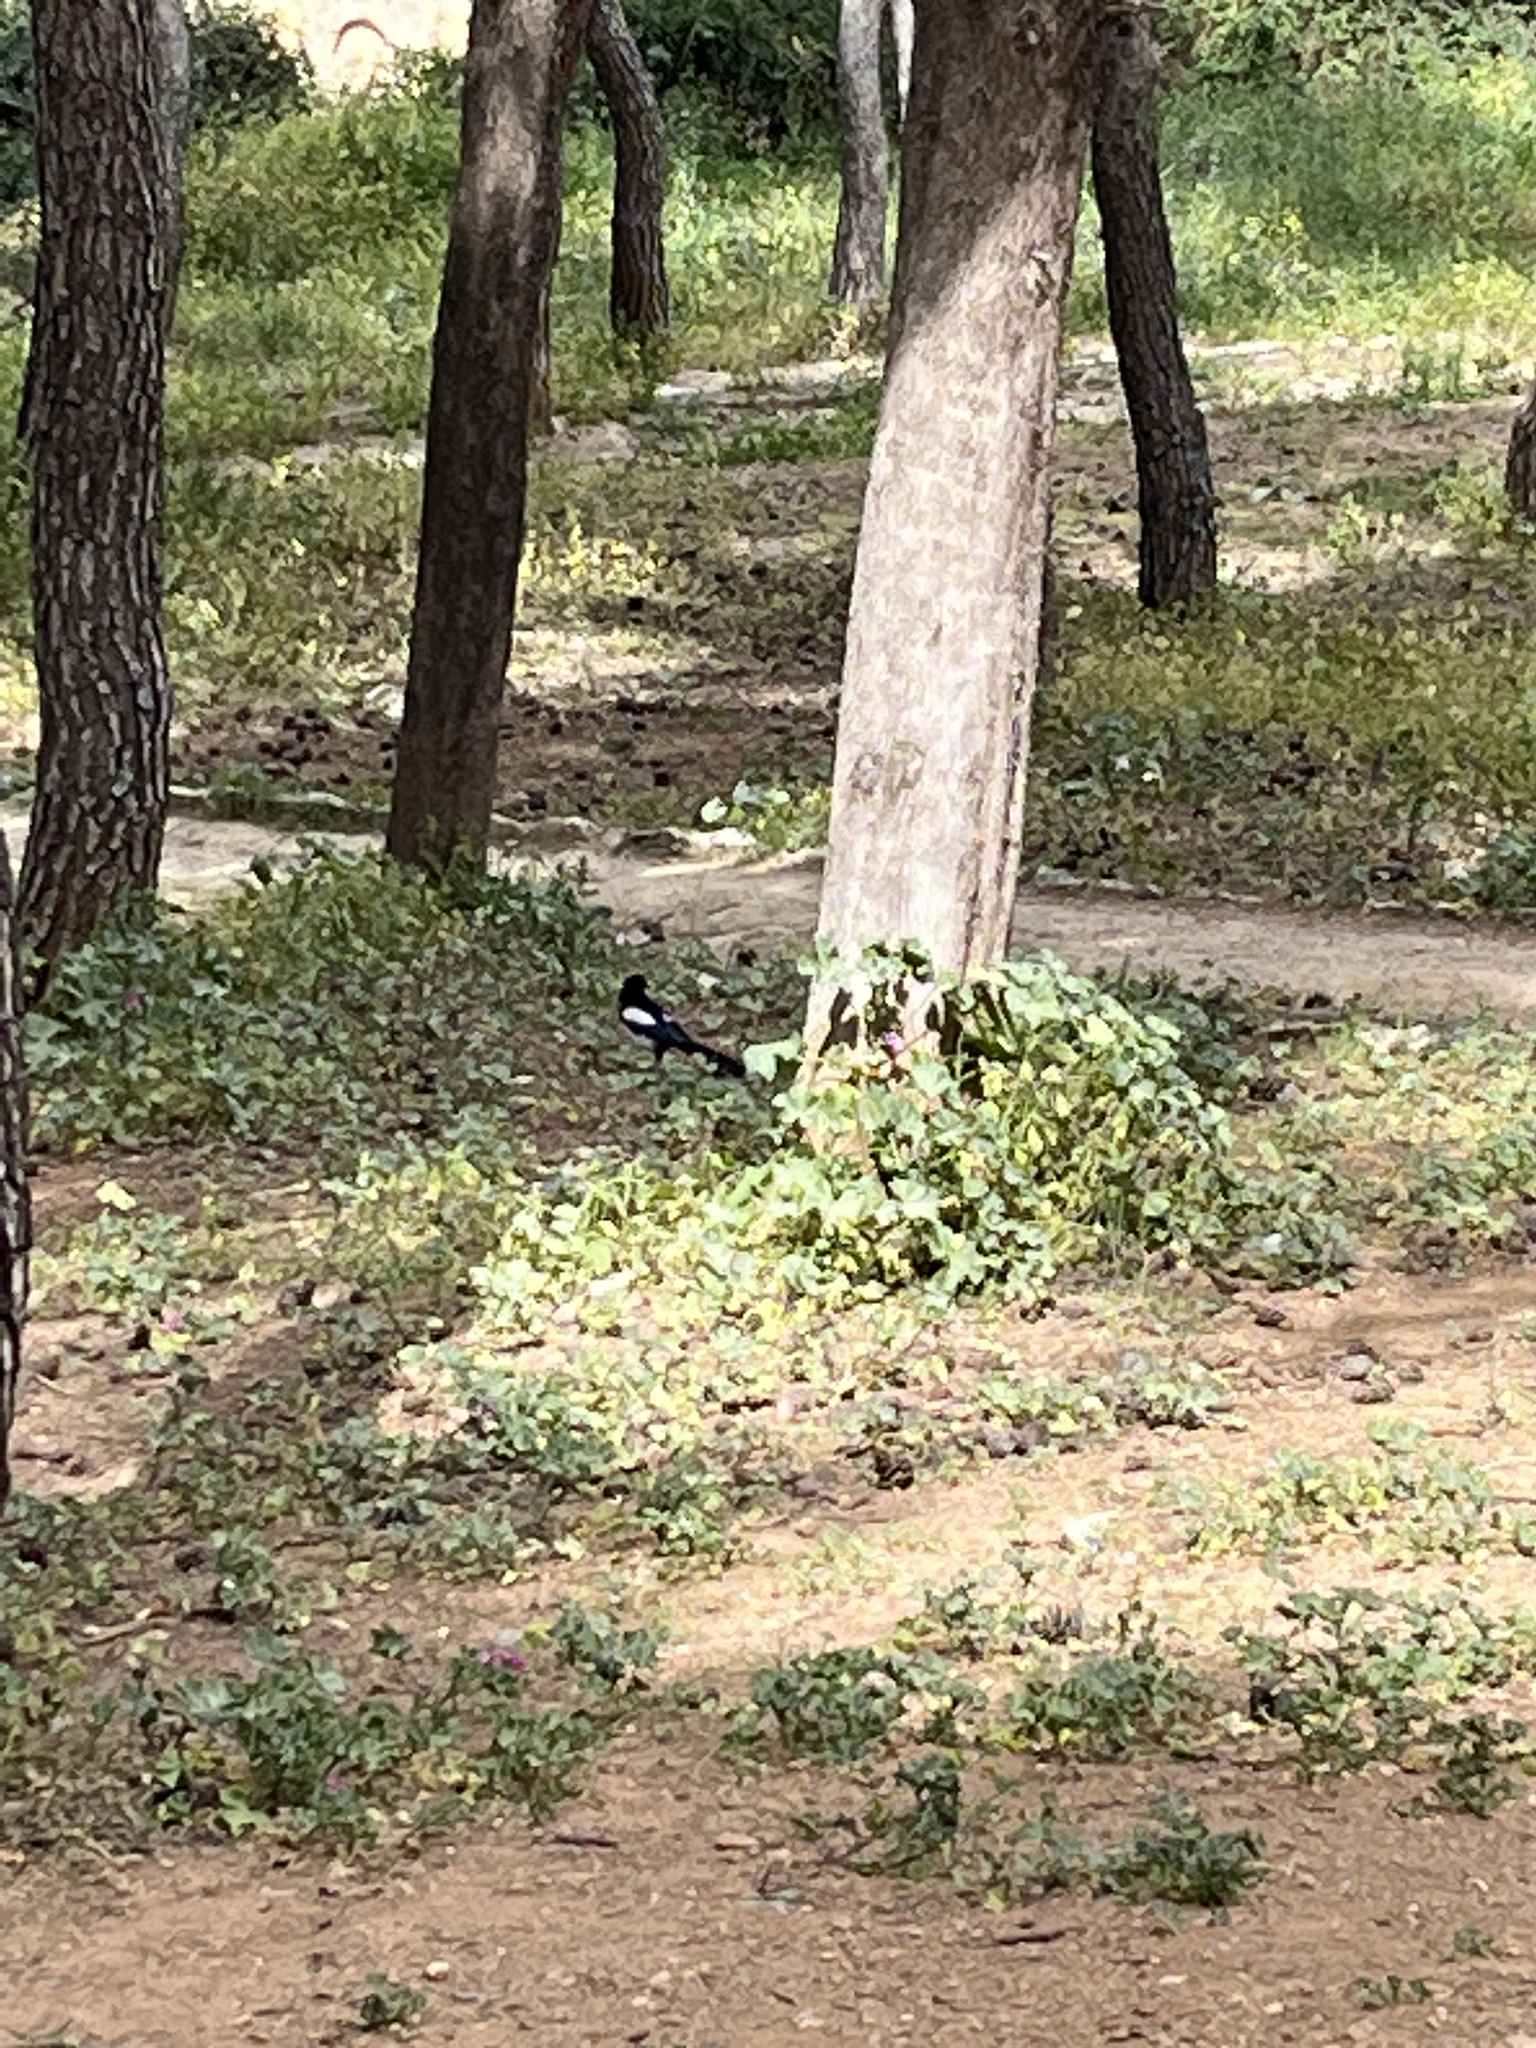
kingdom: Animalia
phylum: Chordata
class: Aves
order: Passeriformes
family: Corvidae
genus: Pica
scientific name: Pica pica
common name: Eurasian magpie
